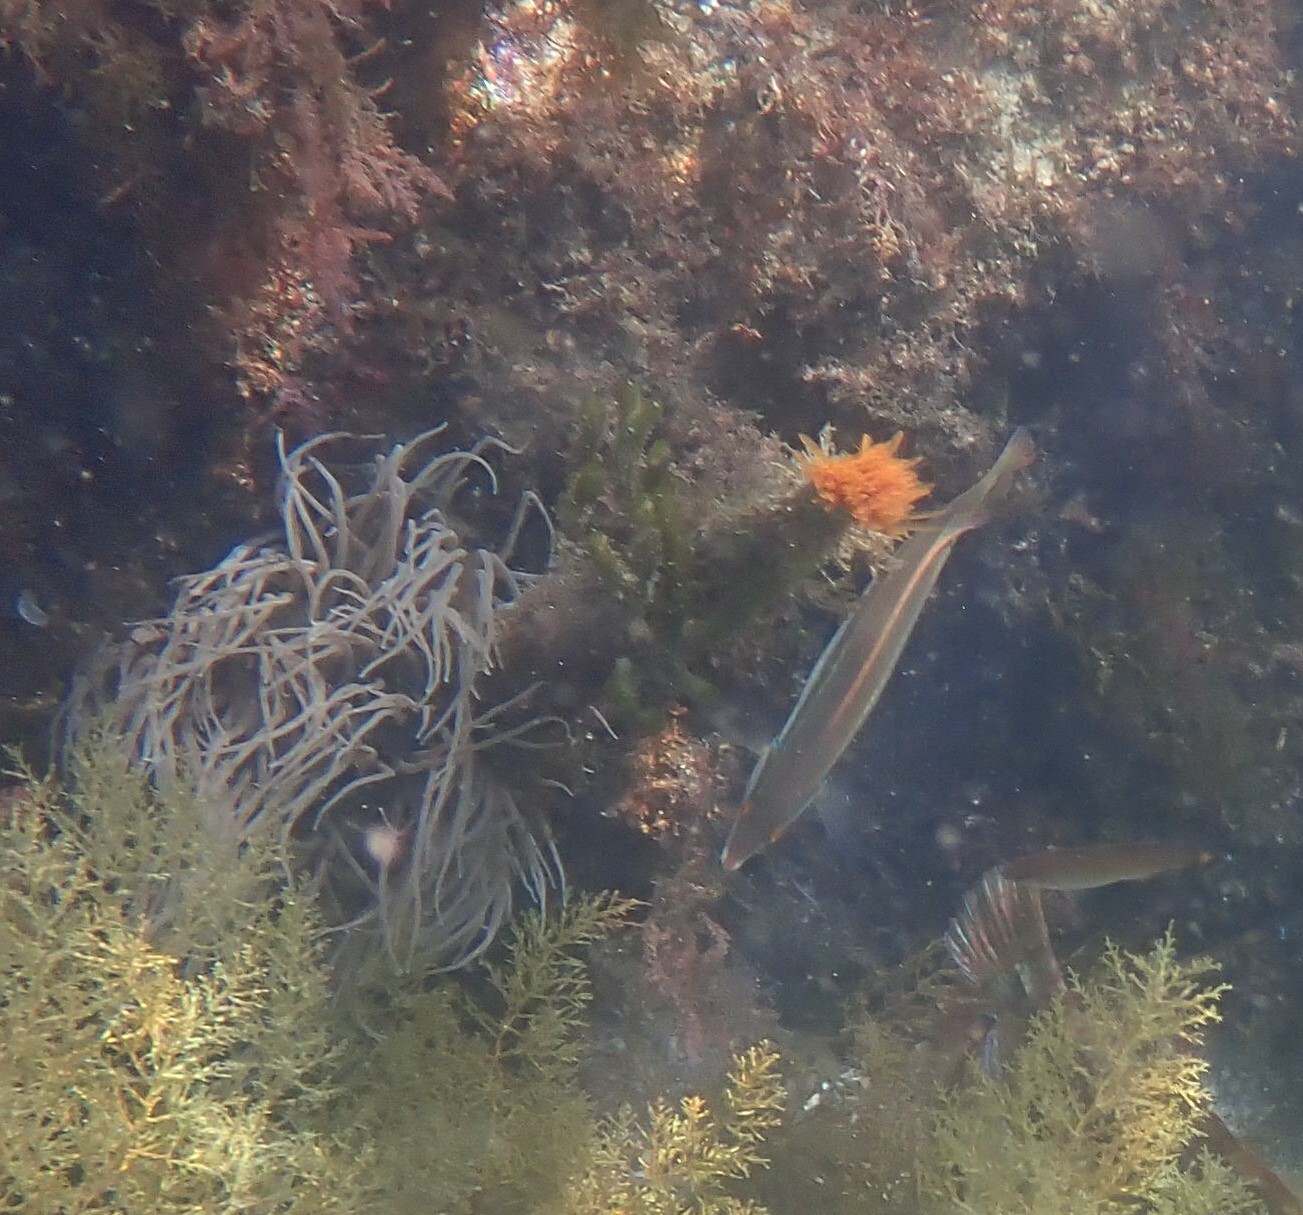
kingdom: Animalia
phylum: Annelida
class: Polychaeta
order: Sabellida
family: Sabellidae
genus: Sabella
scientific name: Sabella spallanzanii
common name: Feather duster worm
